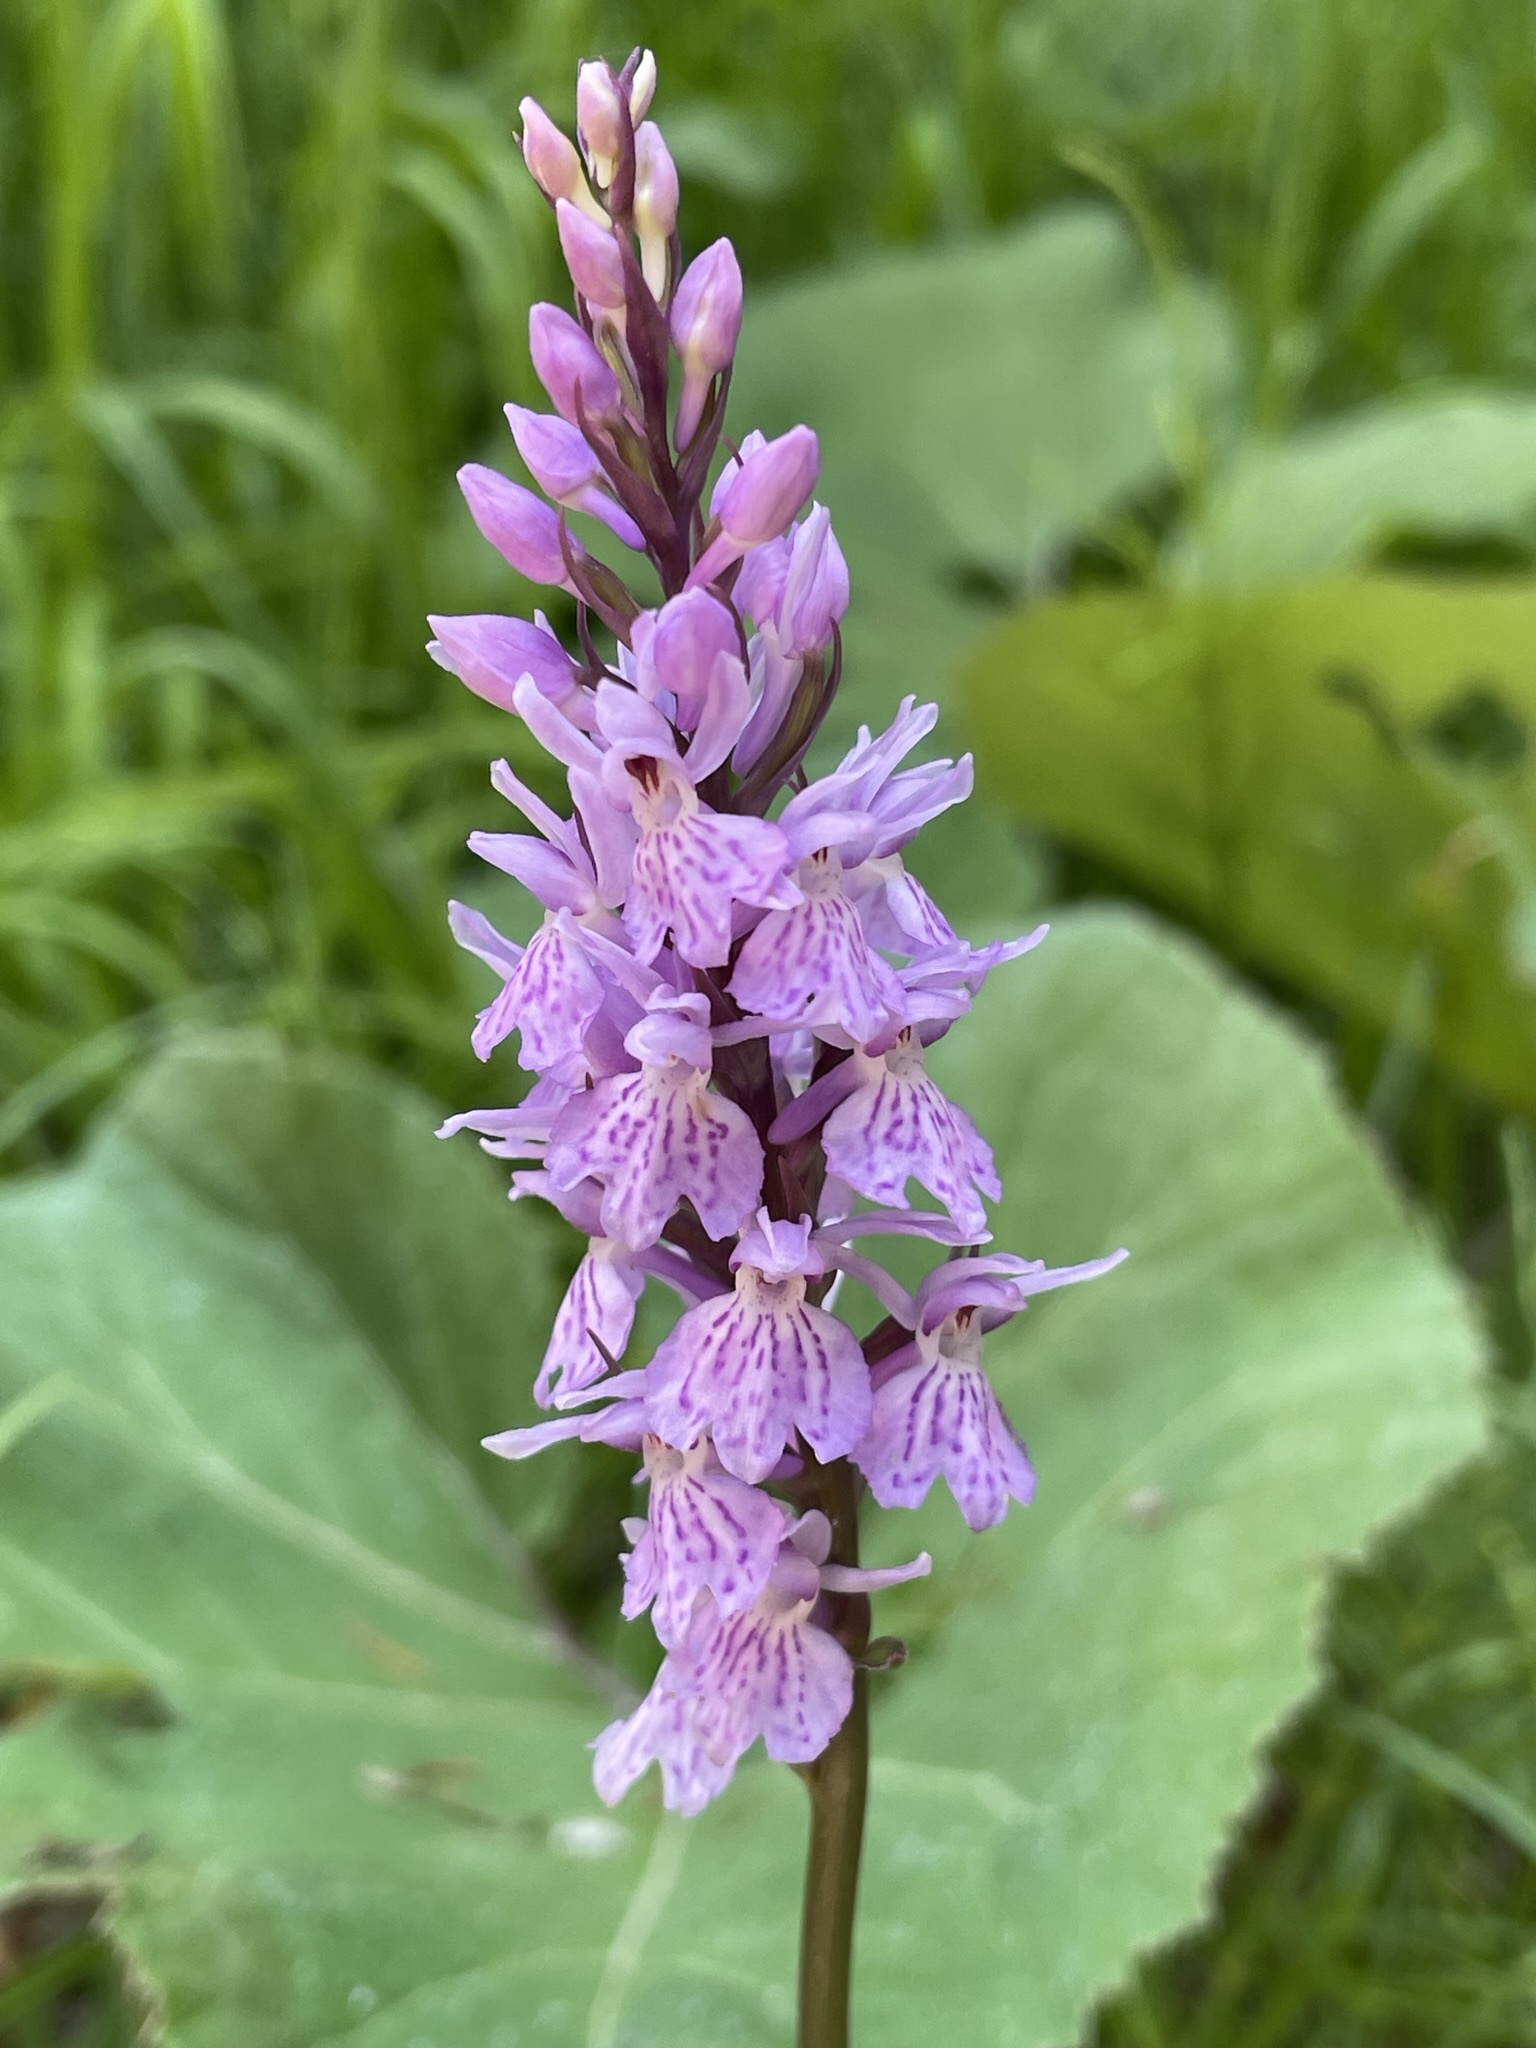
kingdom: Plantae
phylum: Tracheophyta
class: Liliopsida
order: Asparagales
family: Orchidaceae
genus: Dactylorhiza
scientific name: Dactylorhiza maculata
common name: Heath spotted-orchid
